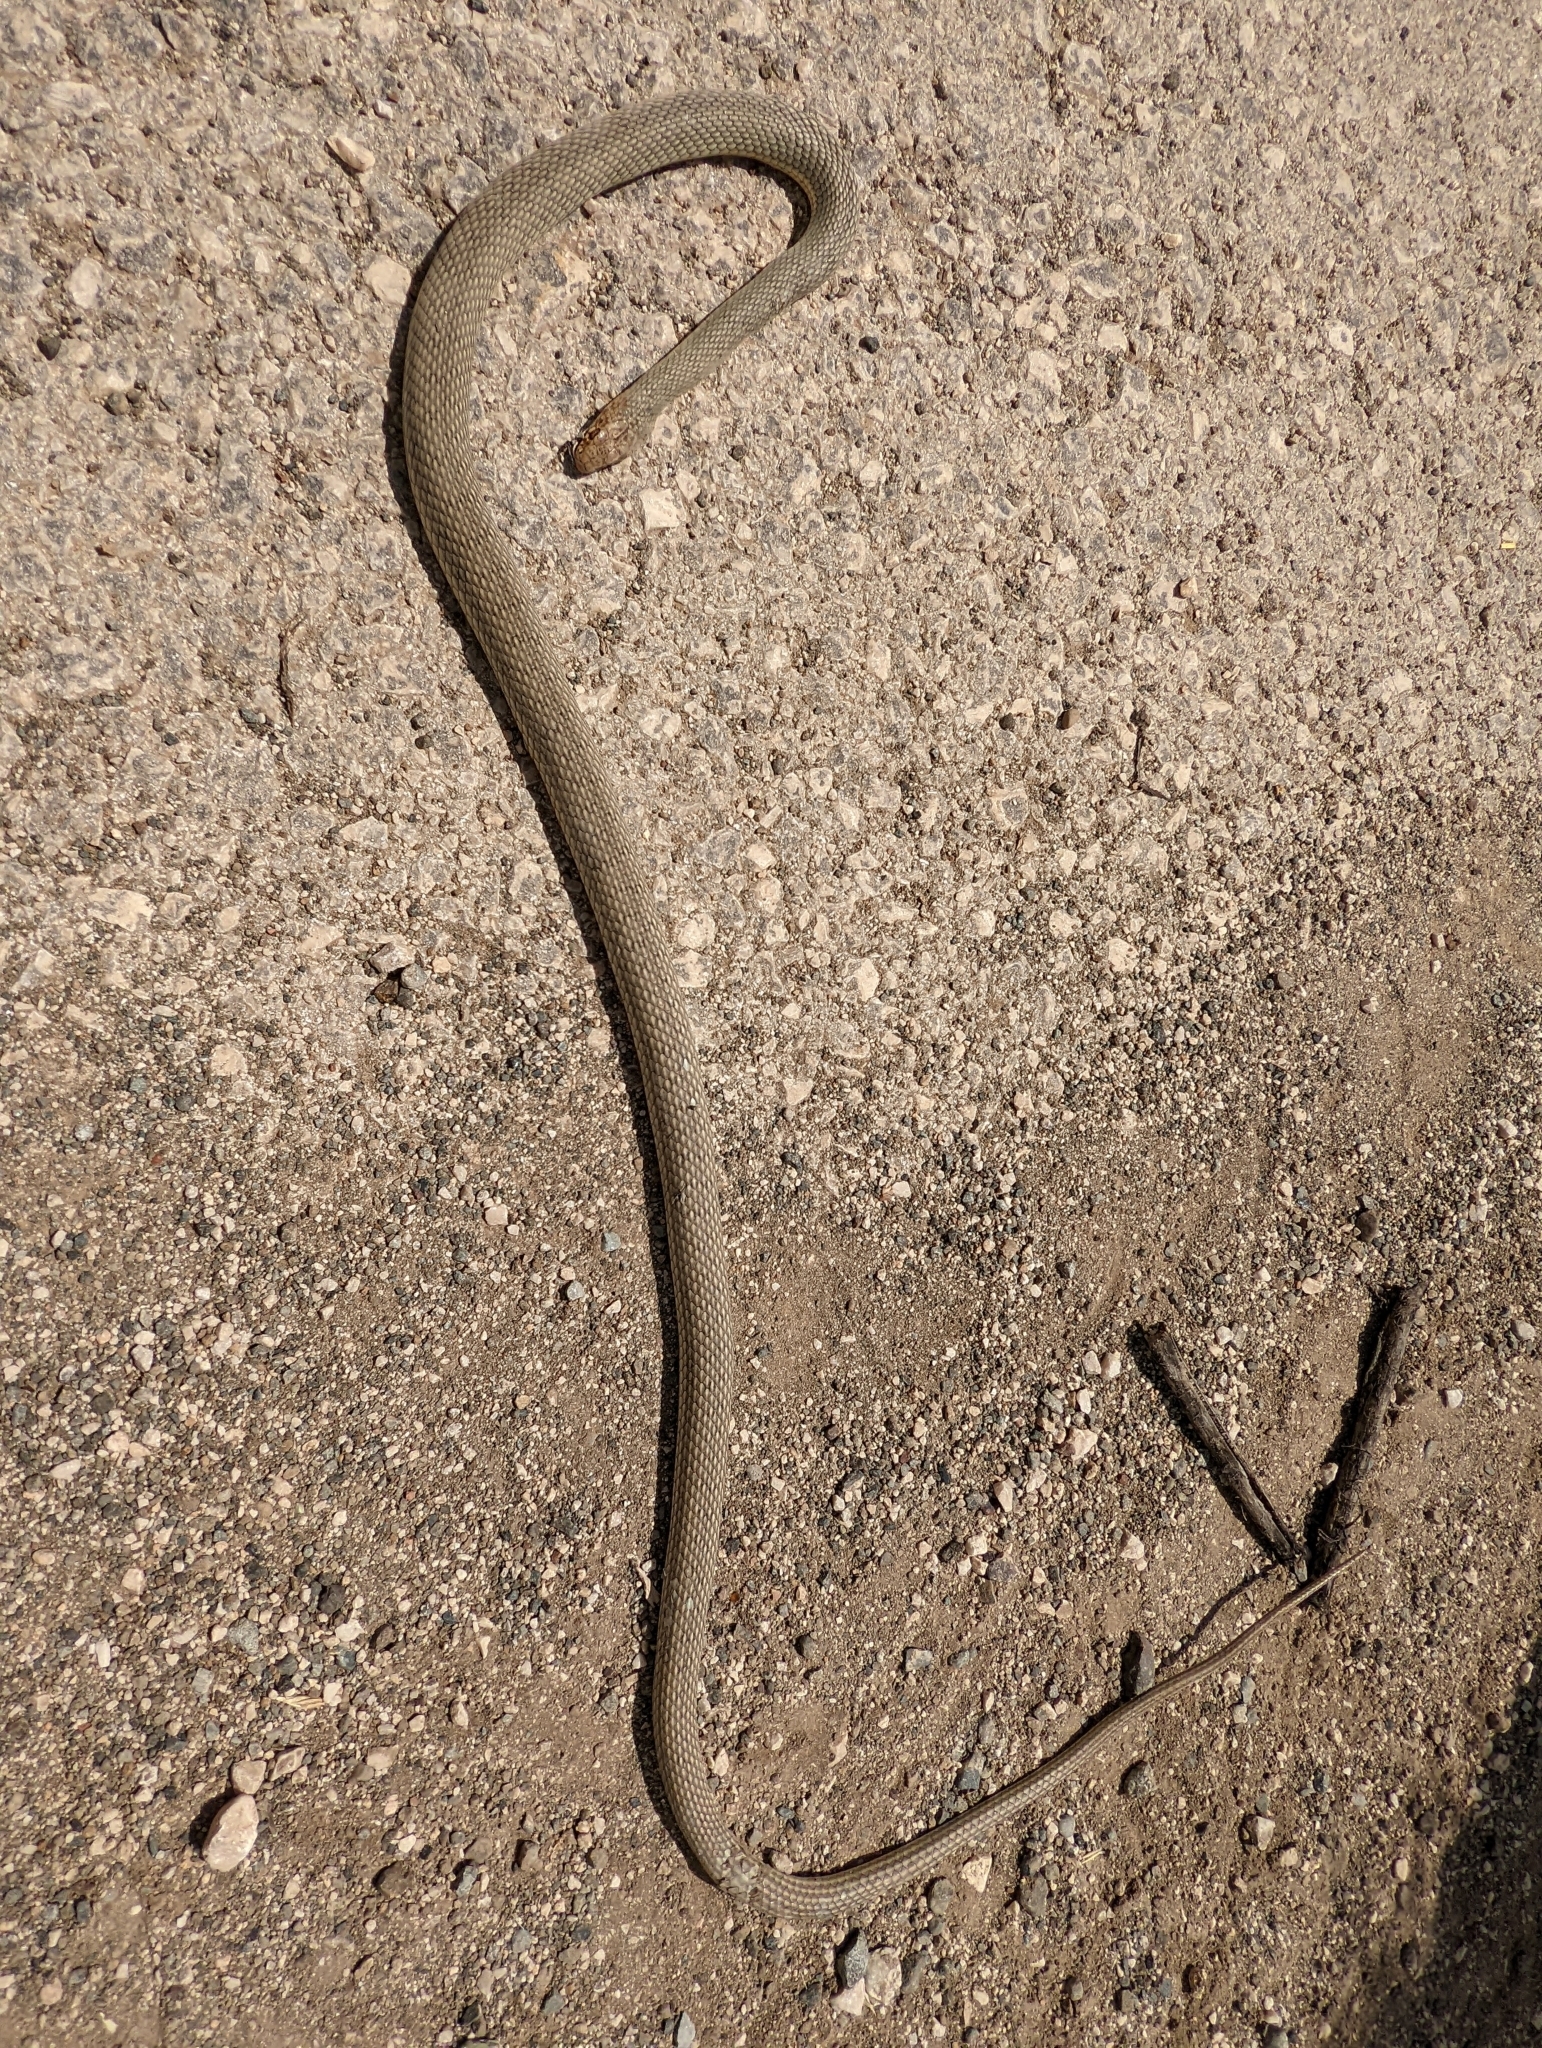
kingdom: Animalia
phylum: Chordata
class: Squamata
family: Colubridae
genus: Dolichophis
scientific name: Dolichophis caspius
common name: Large whip snake
